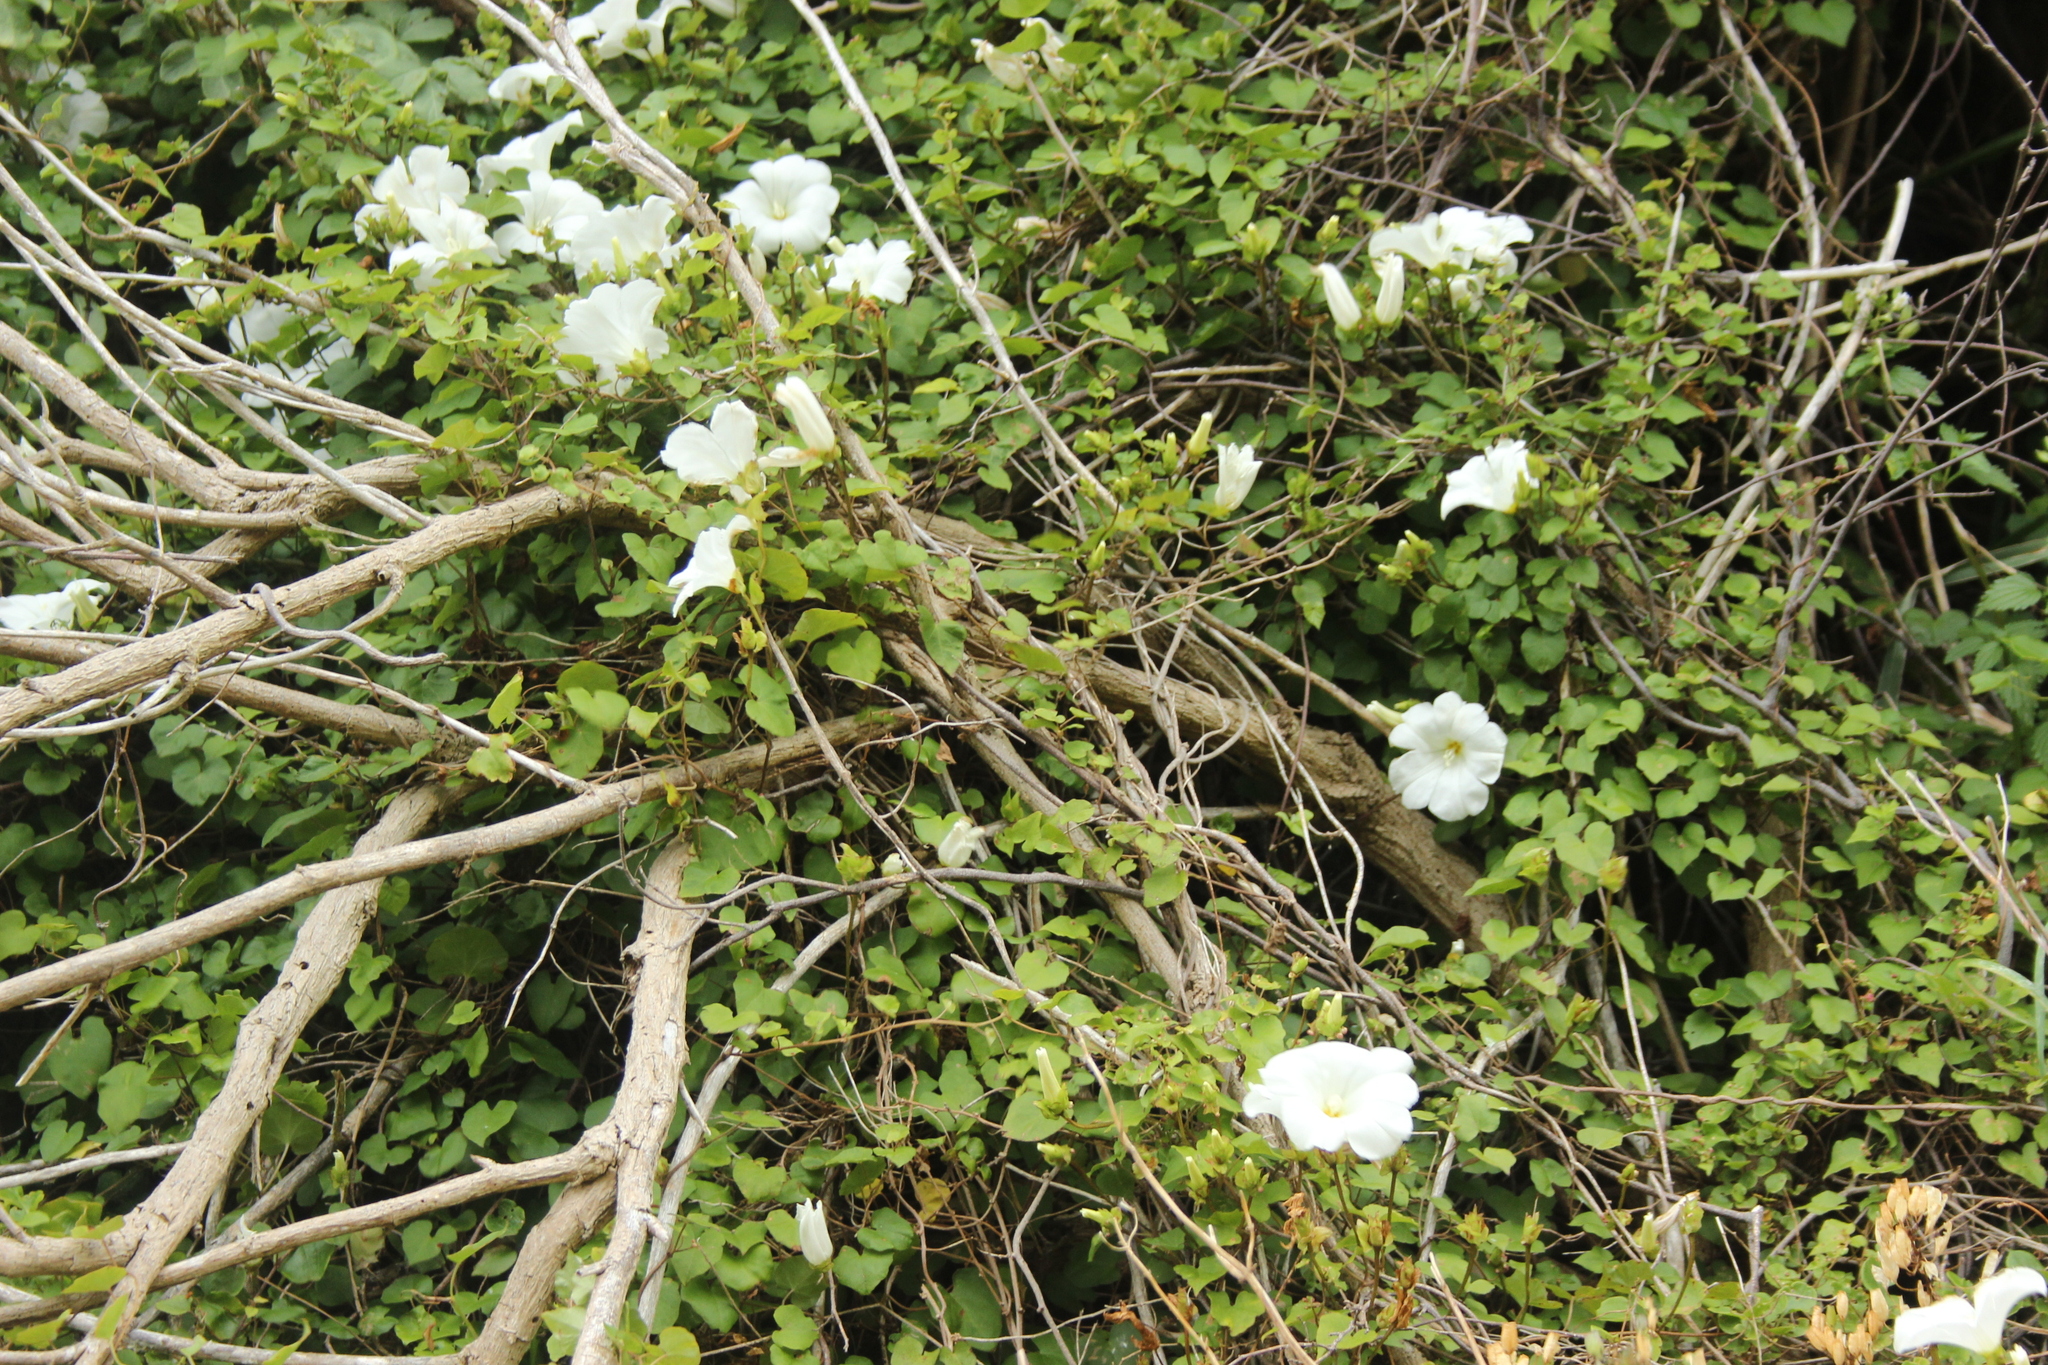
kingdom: Plantae
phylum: Tracheophyta
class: Magnoliopsida
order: Solanales
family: Convolvulaceae
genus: Calystegia
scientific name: Calystegia tuguriorum
